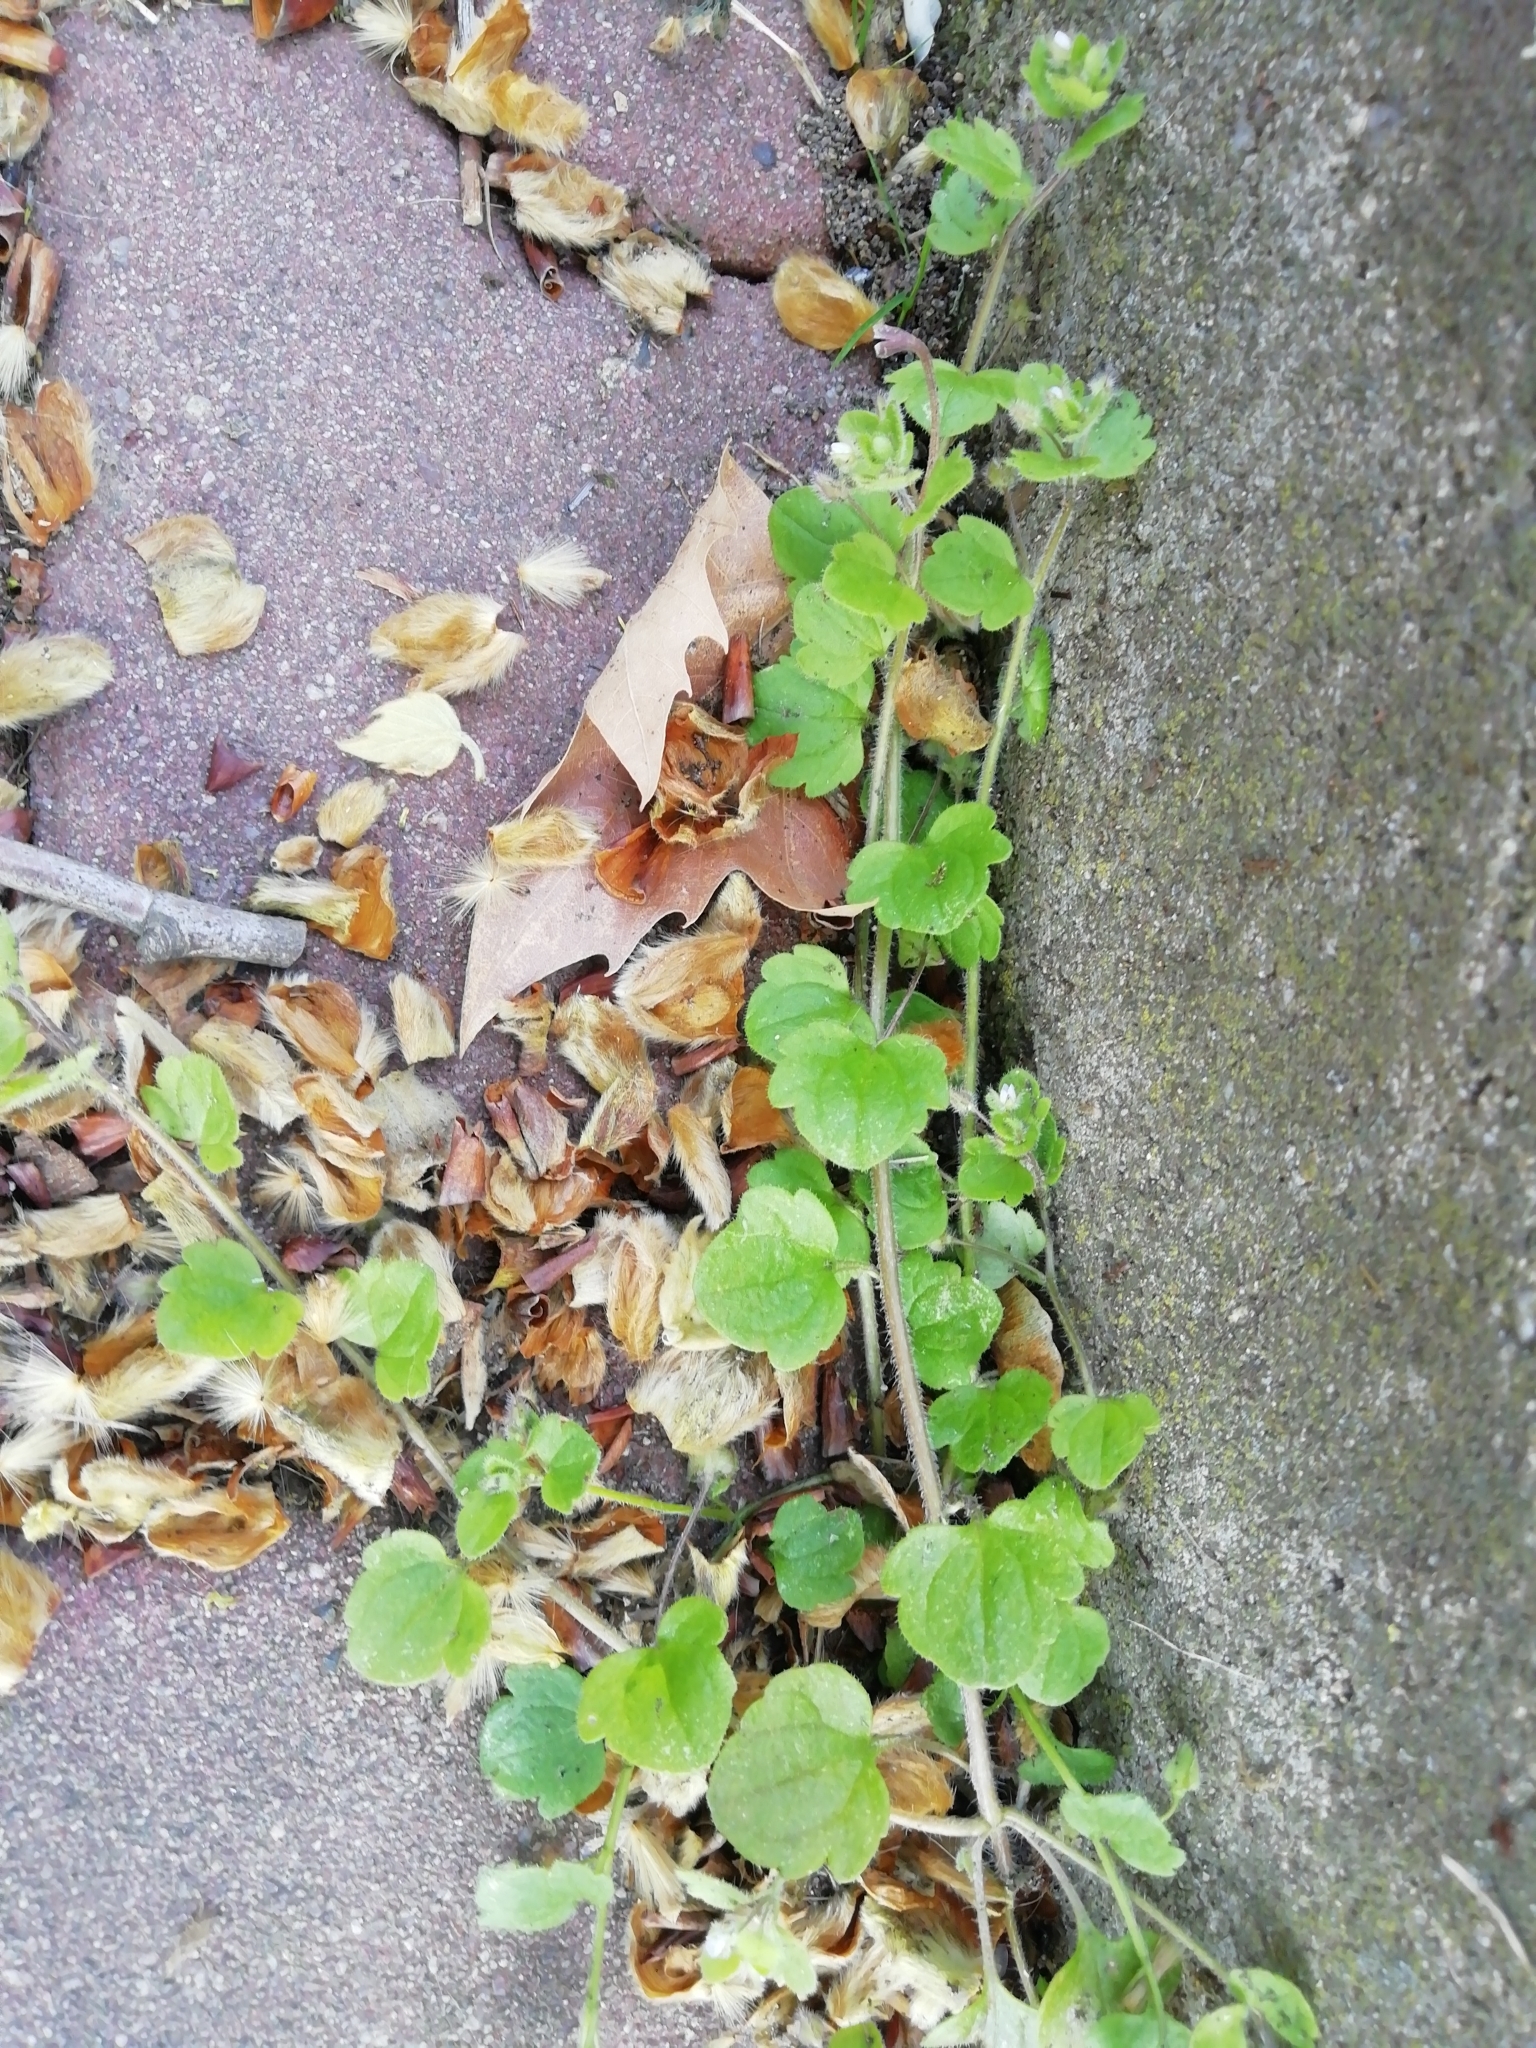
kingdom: Plantae
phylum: Tracheophyta
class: Magnoliopsida
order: Lamiales
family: Plantaginaceae
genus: Veronica
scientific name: Veronica sublobata
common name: False ivy-leaved speedwell
